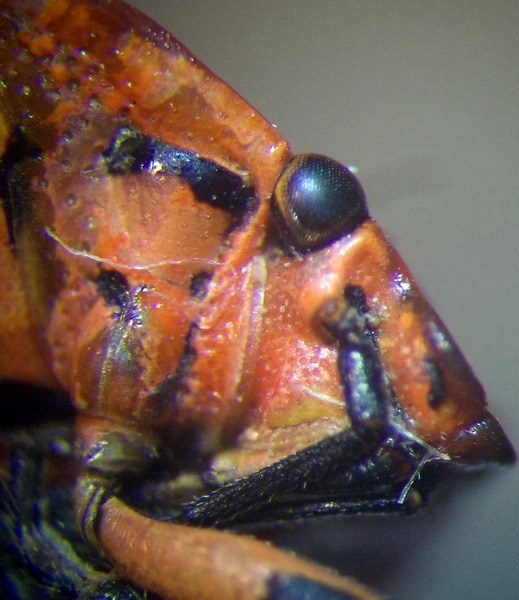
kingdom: Animalia
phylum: Arthropoda
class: Insecta
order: Hemiptera
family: Pentatomidae
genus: Eurydema
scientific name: Eurydema ventralis
